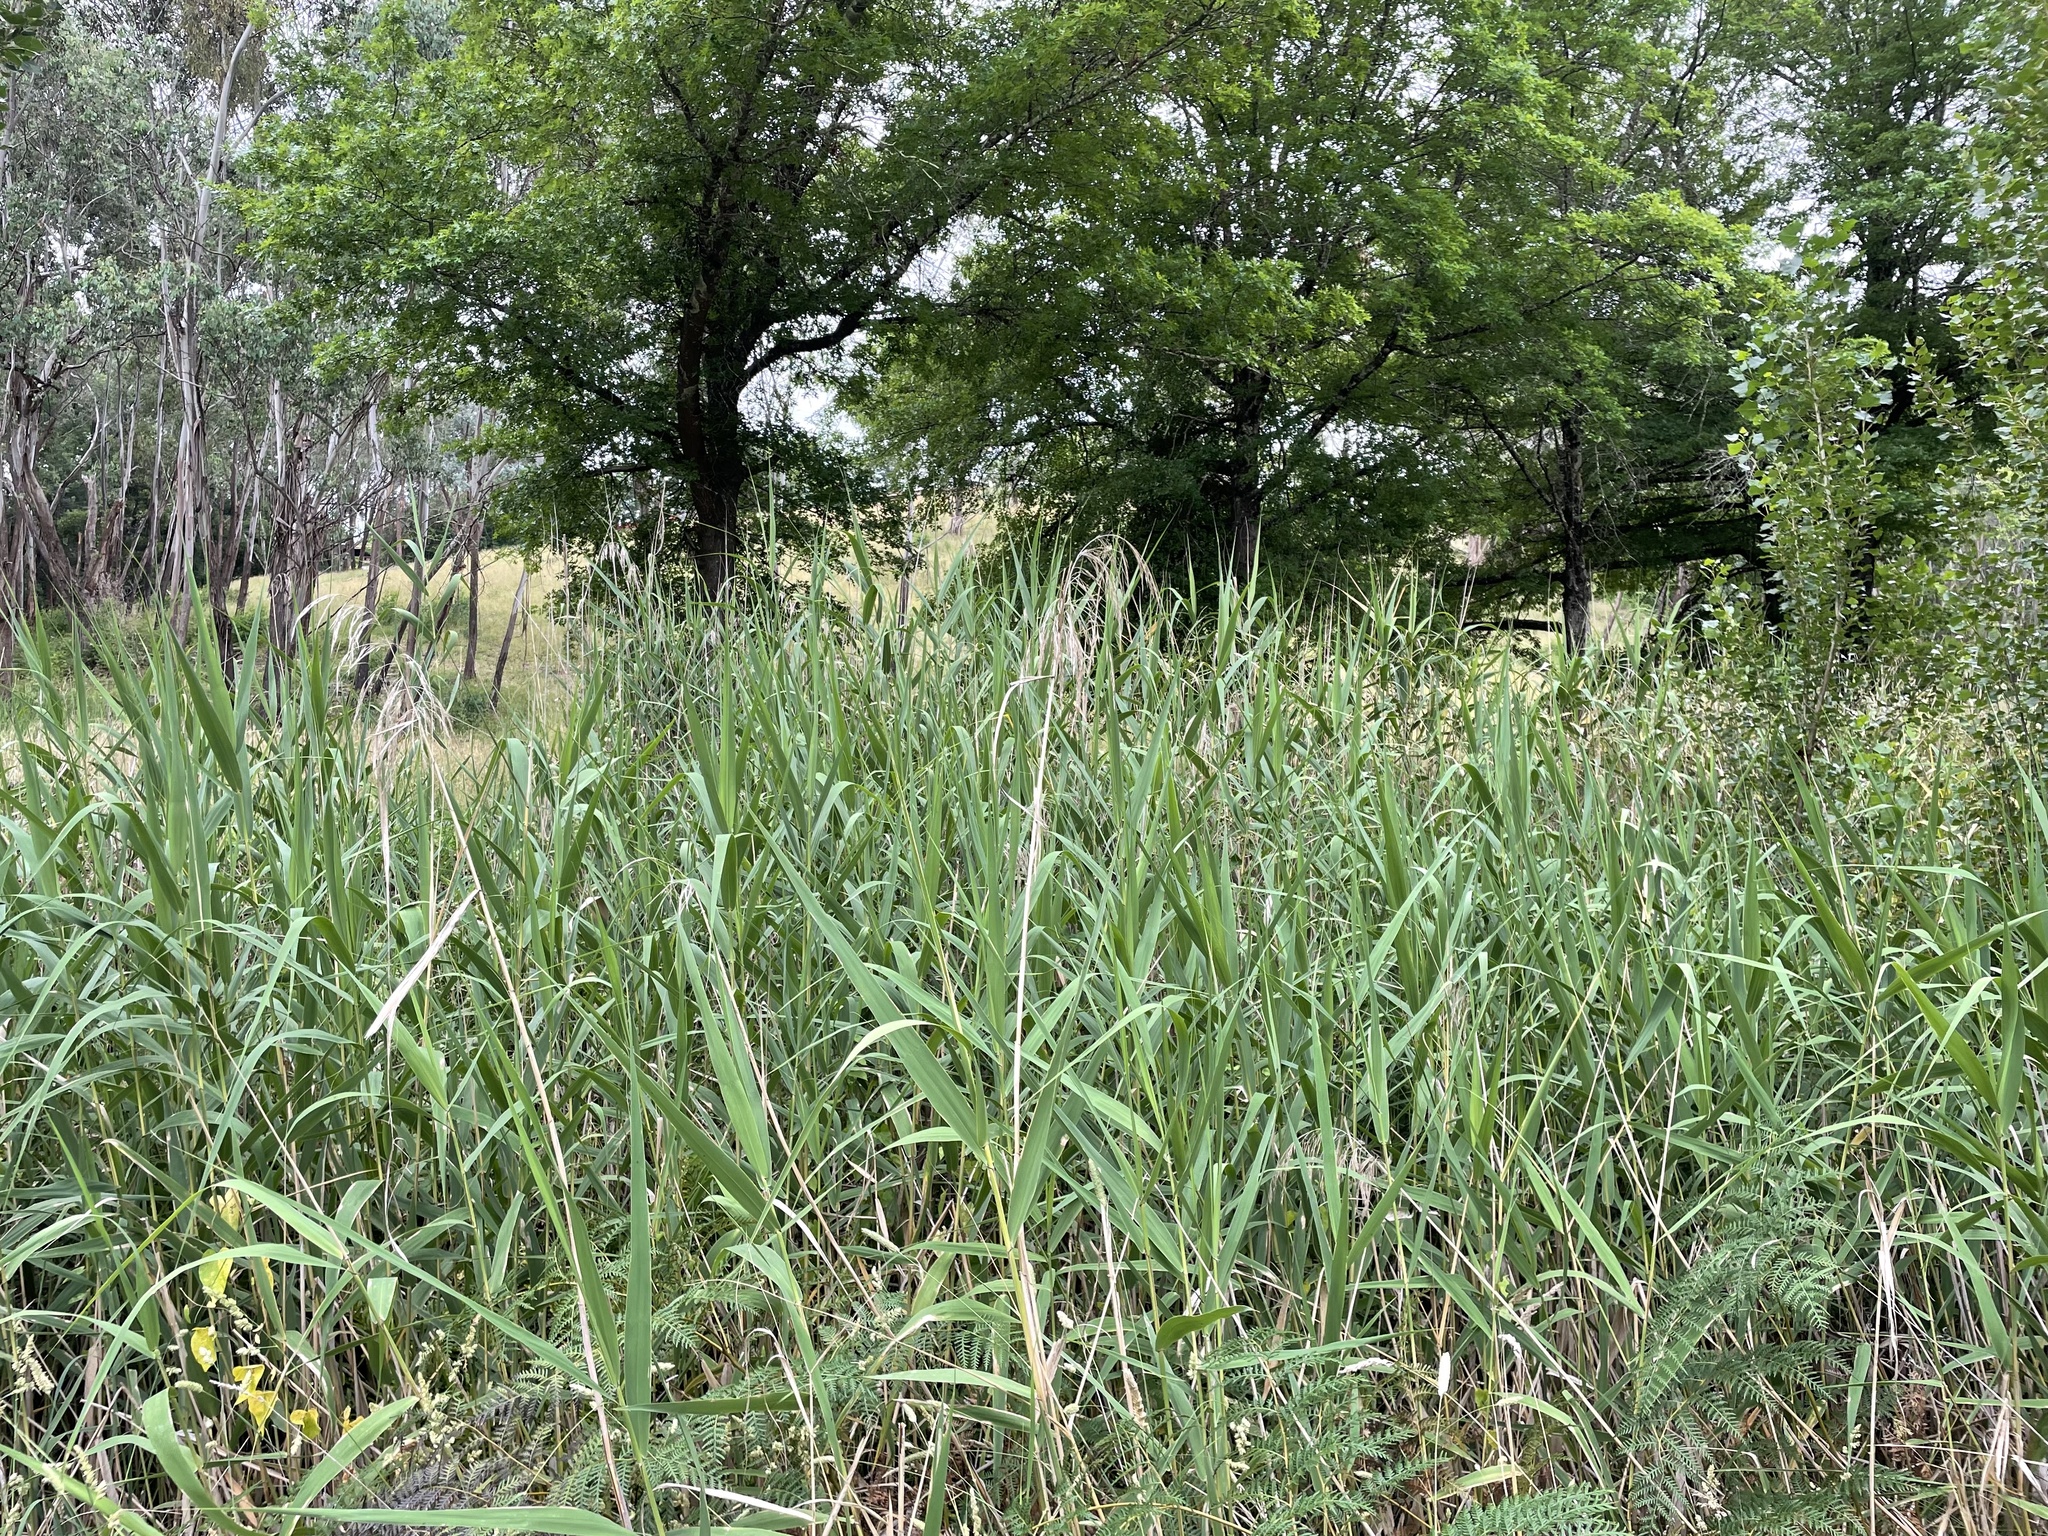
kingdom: Plantae
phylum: Tracheophyta
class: Liliopsida
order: Poales
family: Poaceae
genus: Phragmites
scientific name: Phragmites australis
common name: Common reed
